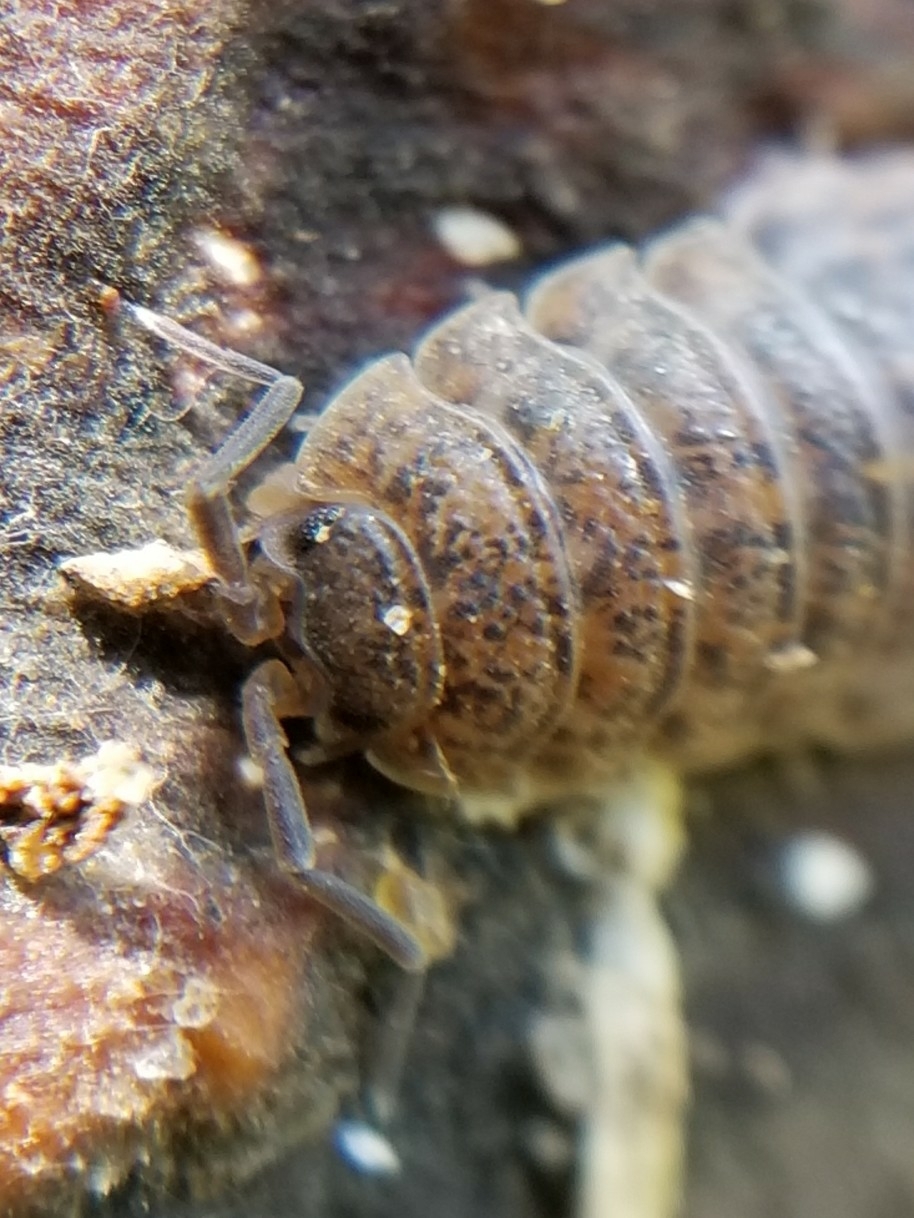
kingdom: Animalia
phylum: Arthropoda
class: Malacostraca
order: Isopoda
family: Trachelipodidae
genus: Trachelipus
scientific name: Trachelipus rathkii
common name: Isopod
